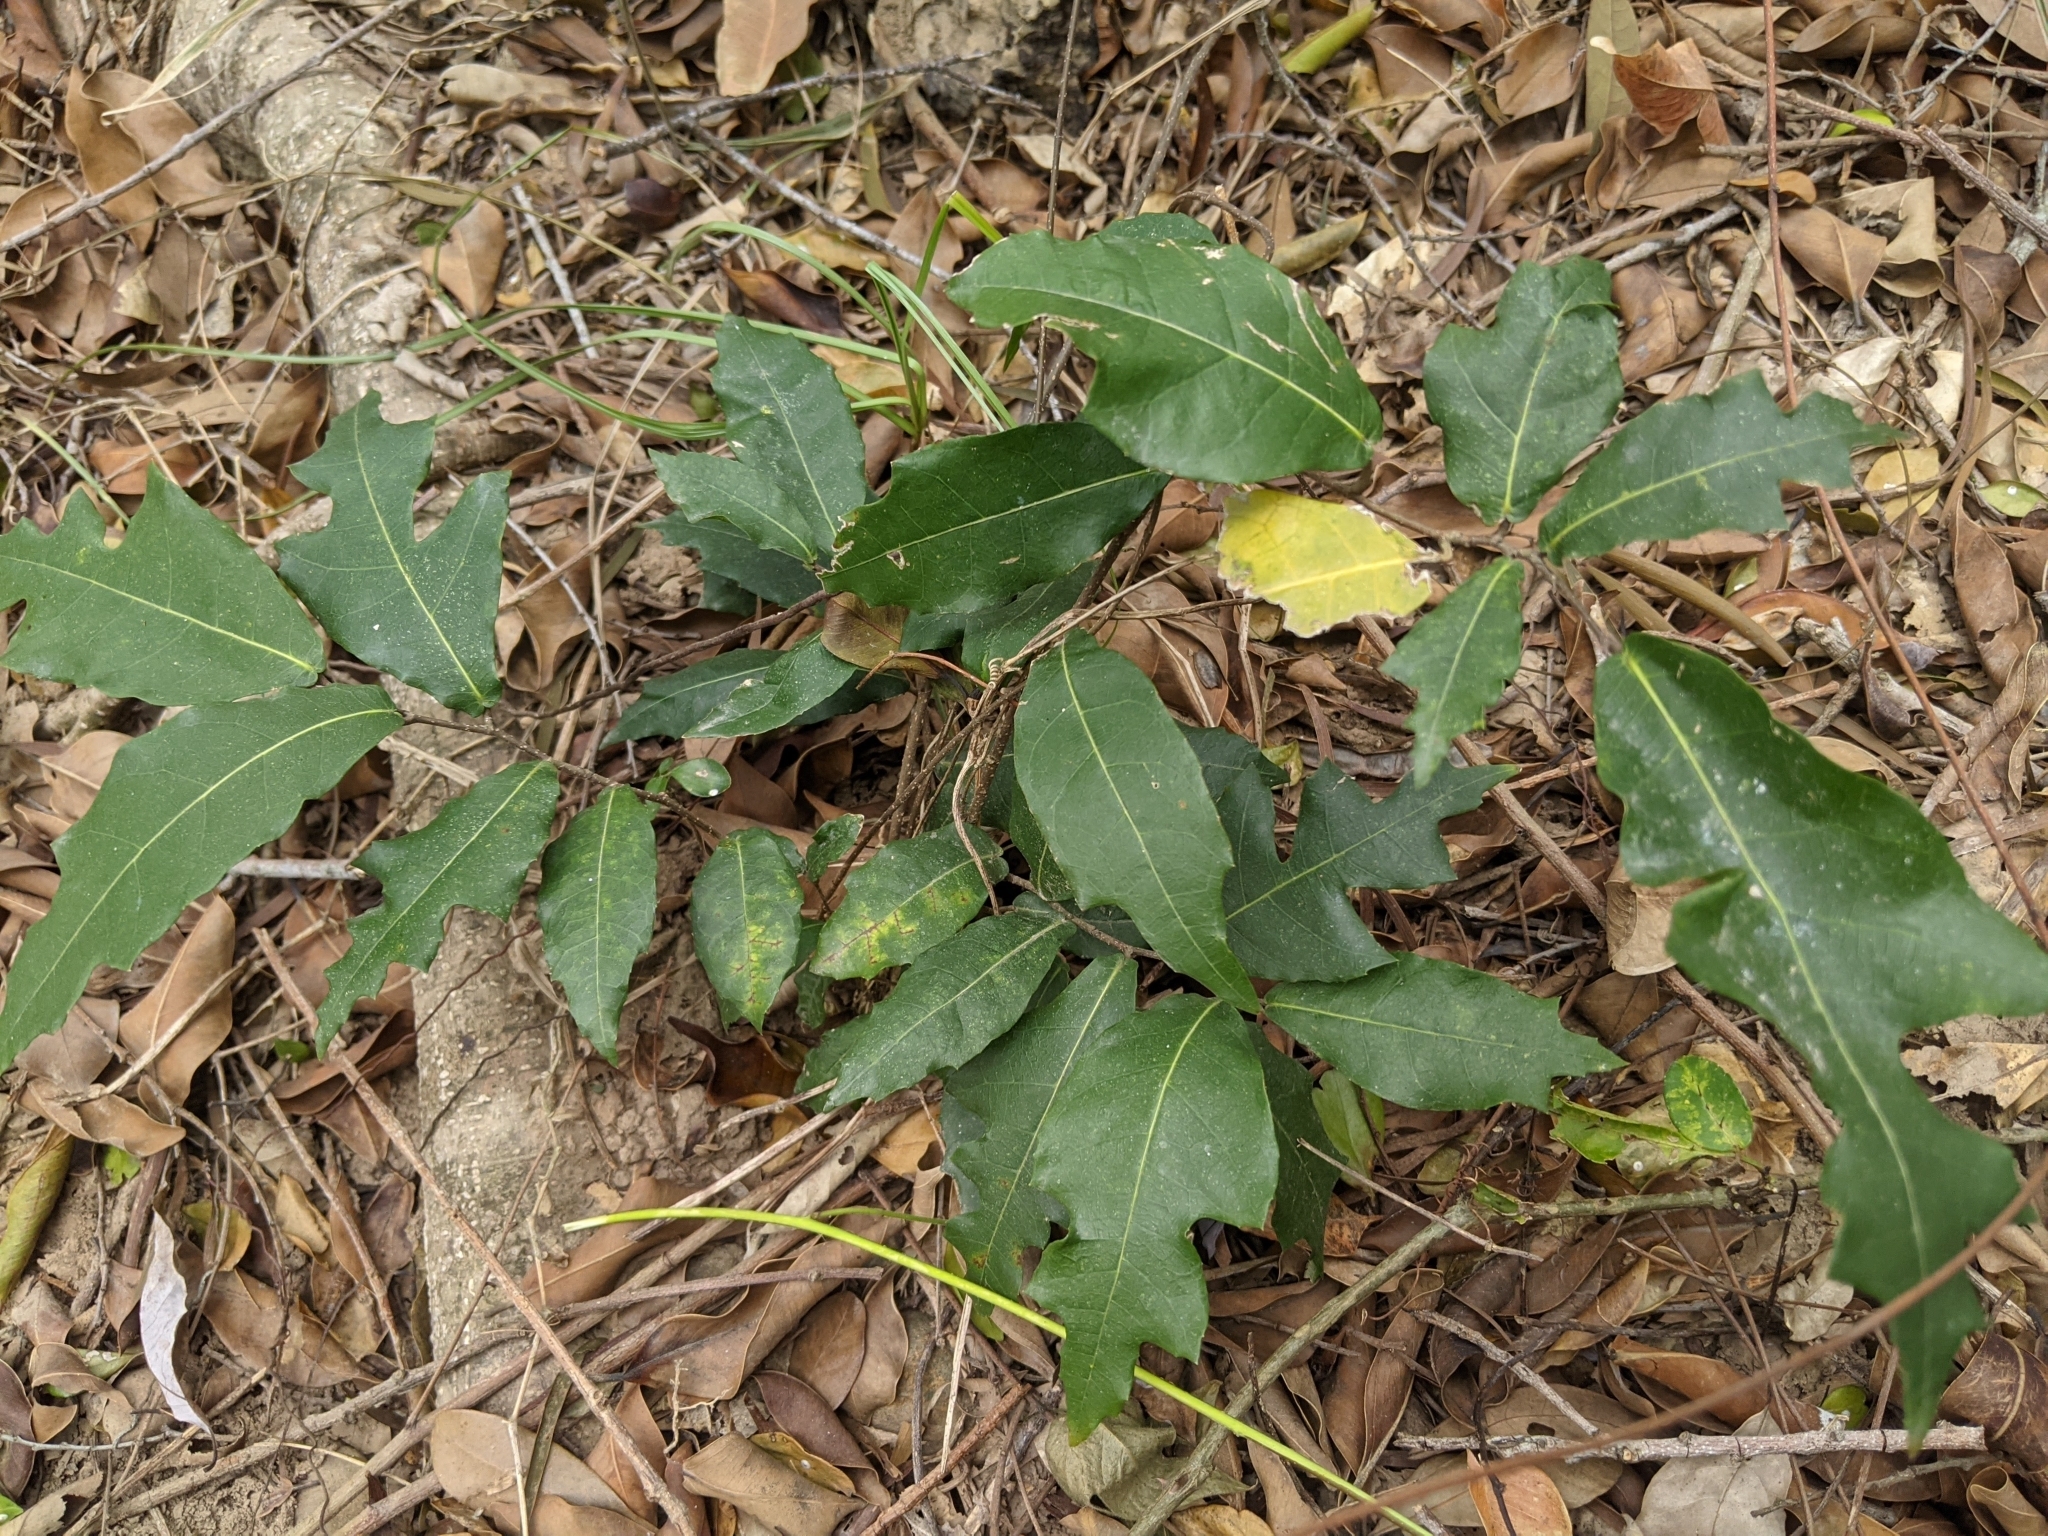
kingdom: Plantae
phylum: Tracheophyta
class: Magnoliopsida
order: Rosales
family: Moraceae
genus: Malaisia
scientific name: Malaisia scandens
